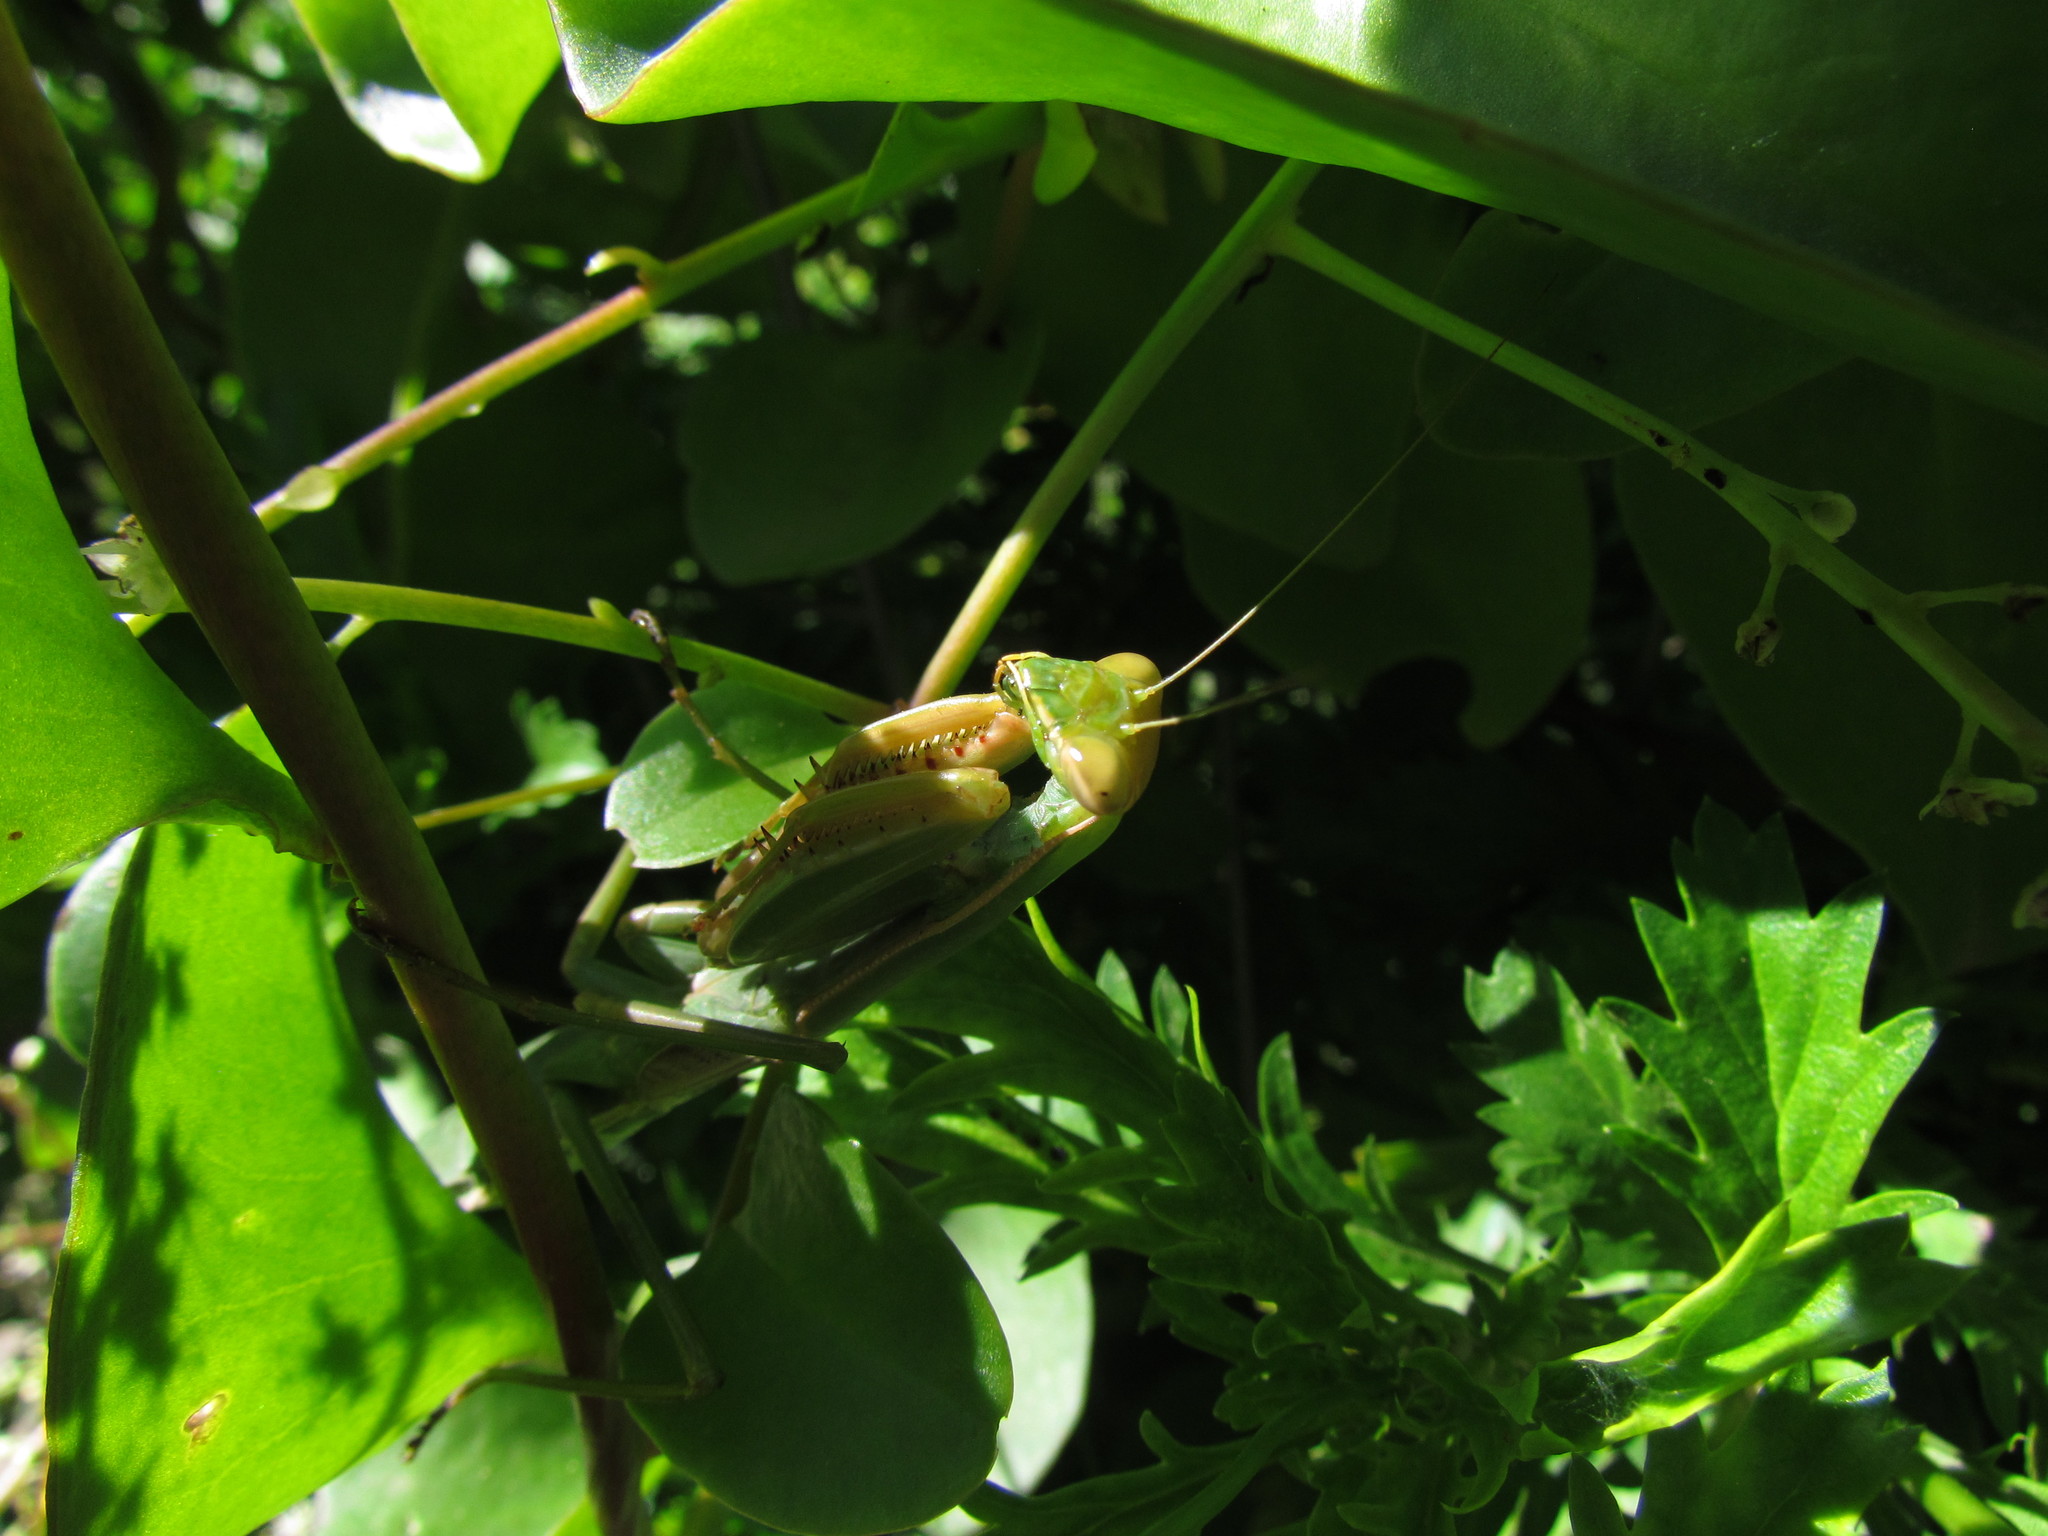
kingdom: Animalia
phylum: Arthropoda
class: Insecta
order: Mantodea
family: Coptopterygidae
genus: Coptopteryx
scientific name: Coptopteryx argentina
